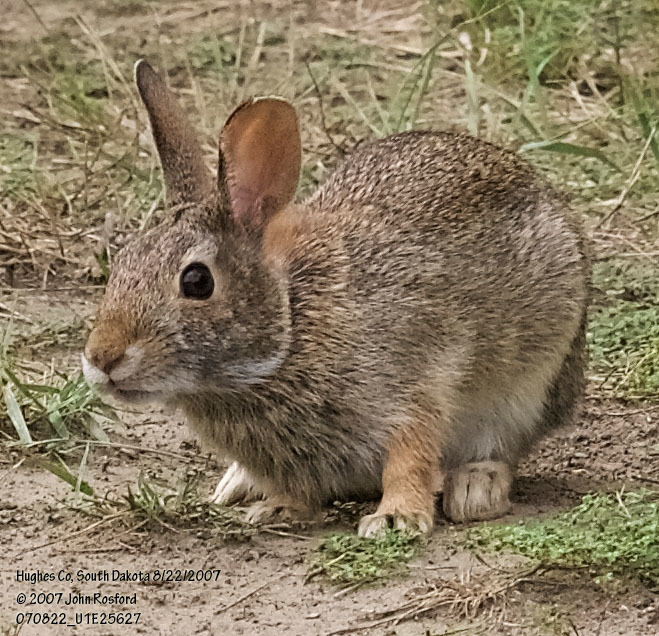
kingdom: Animalia
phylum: Chordata
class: Mammalia
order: Lagomorpha
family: Leporidae
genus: Sylvilagus
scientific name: Sylvilagus floridanus
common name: Eastern cottontail
